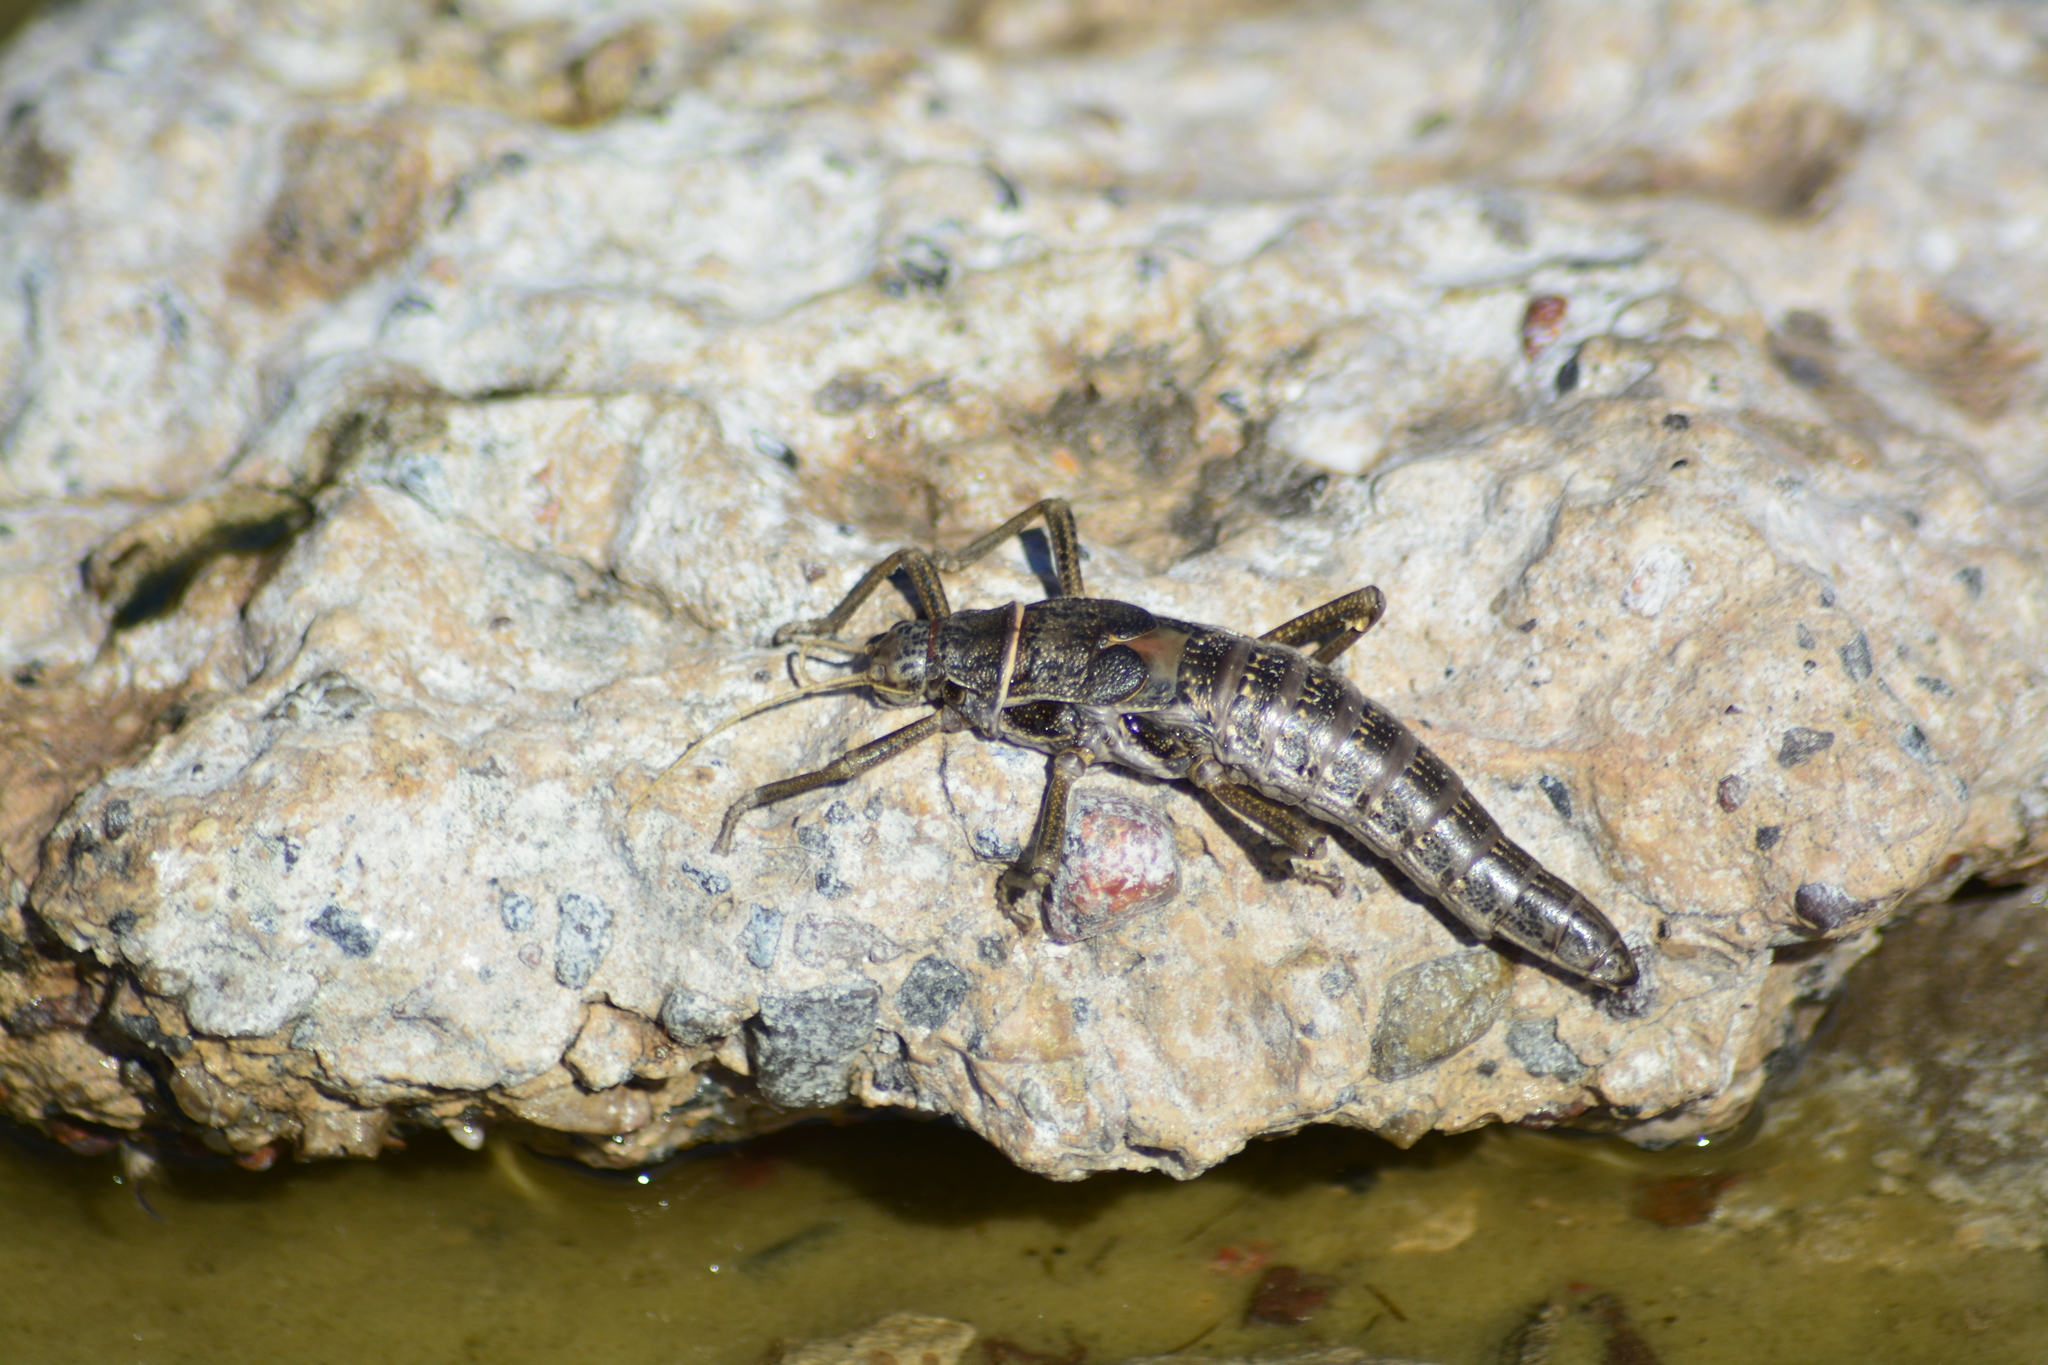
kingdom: Animalia
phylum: Arthropoda
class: Insecta
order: Phasmida
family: Agathemeridae
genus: Agathemera
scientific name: Agathemera millepunctata
